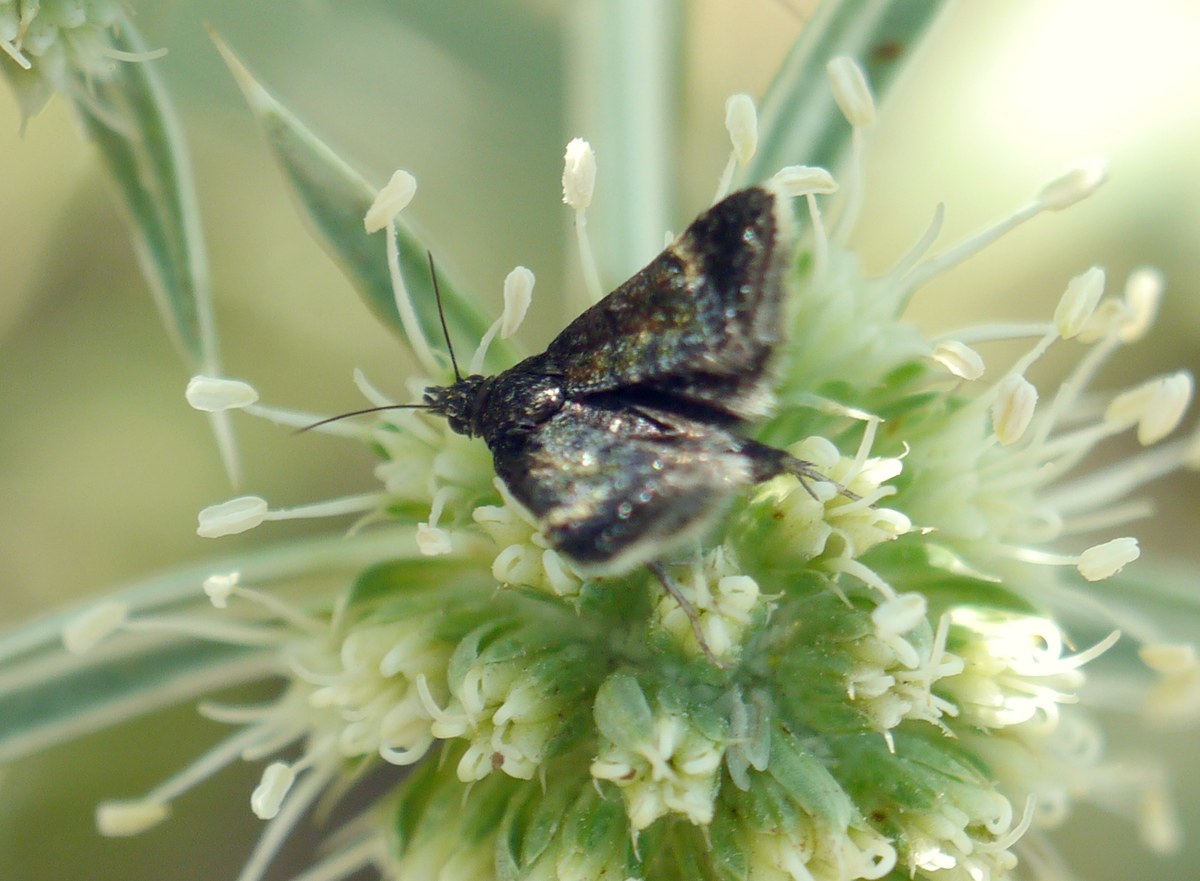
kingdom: Animalia
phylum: Arthropoda
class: Insecta
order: Lepidoptera
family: Crambidae
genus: Heliothela
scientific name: Heliothela wulfeniana
